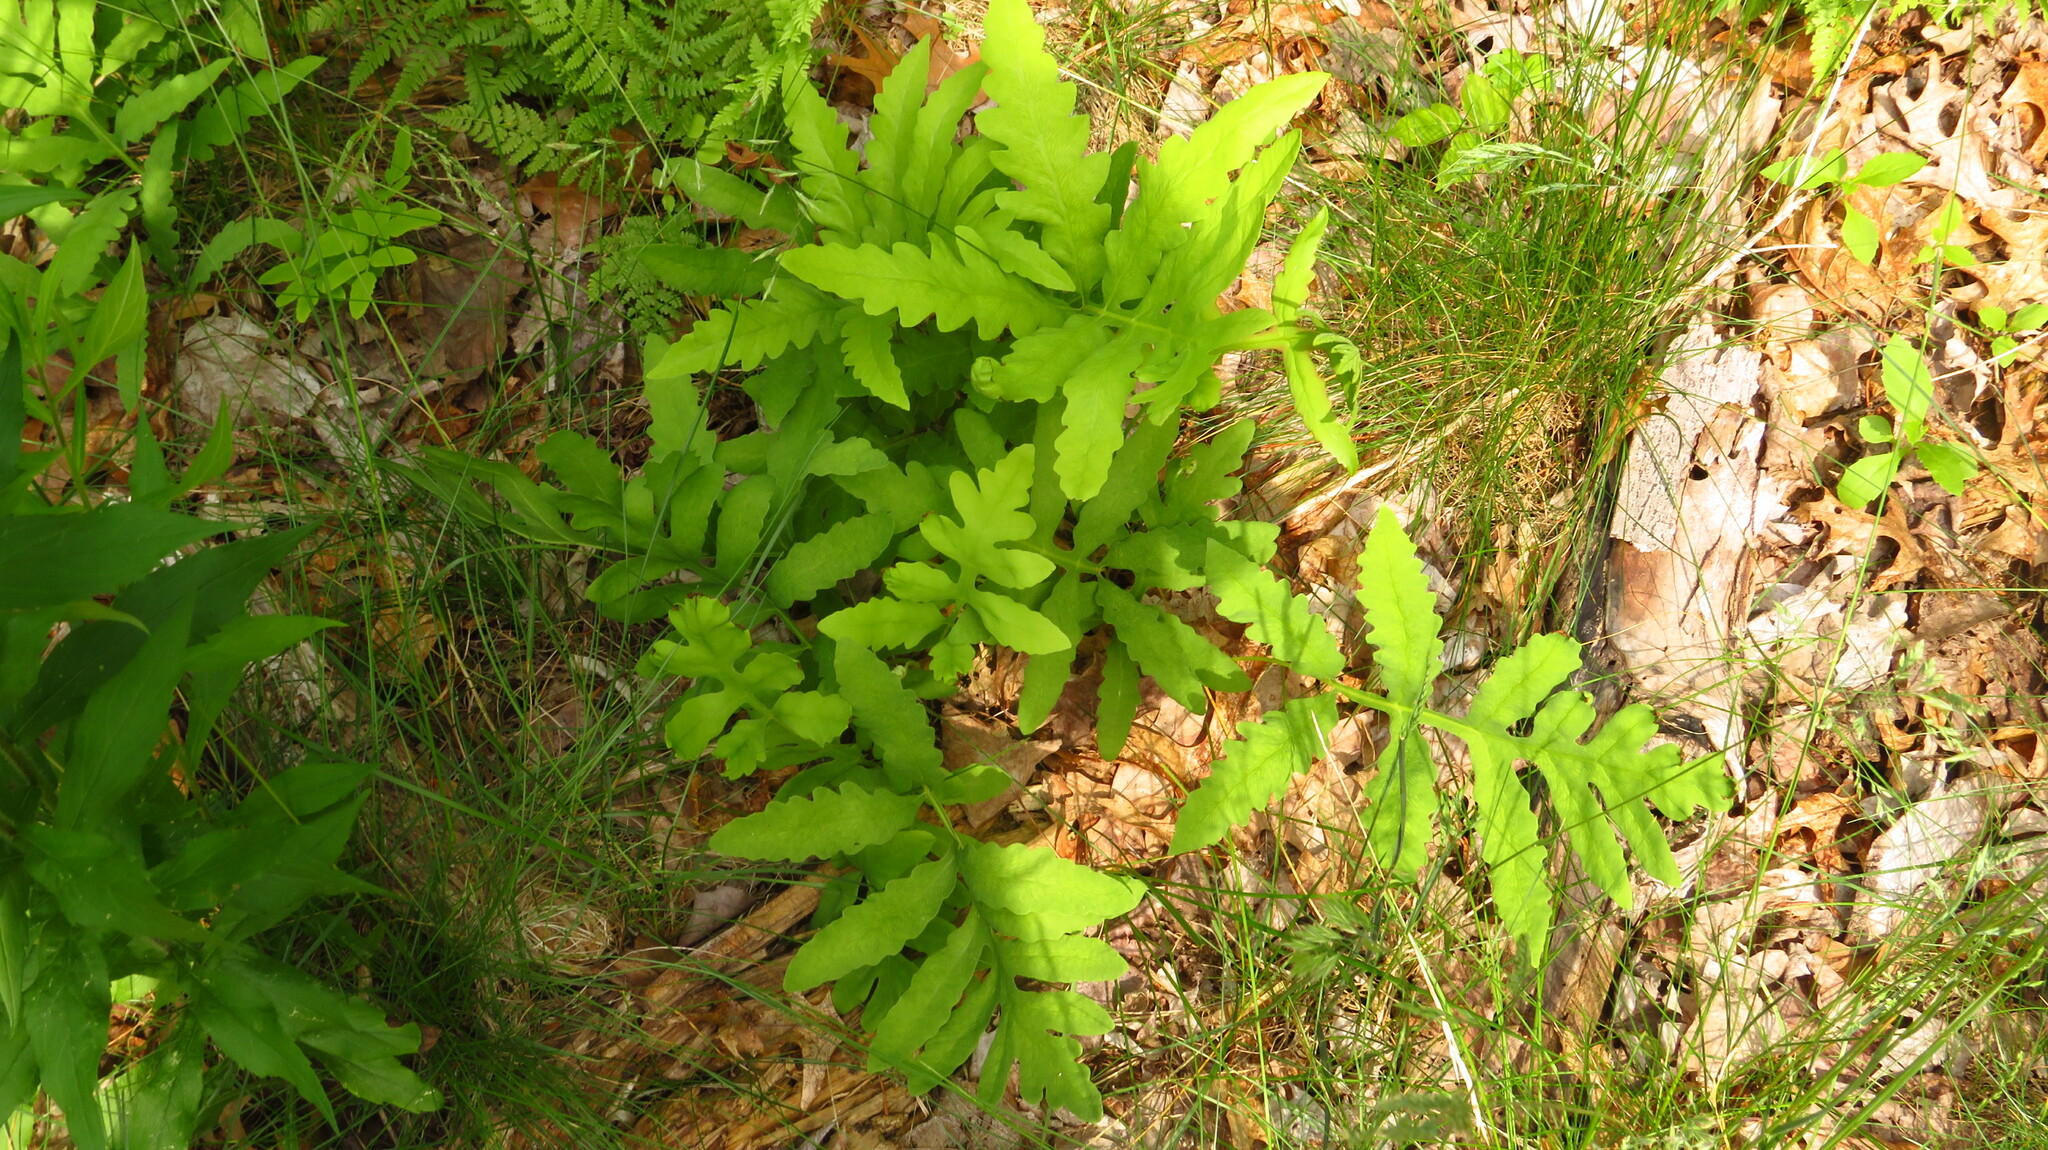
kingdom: Plantae
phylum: Tracheophyta
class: Polypodiopsida
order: Polypodiales
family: Onocleaceae
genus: Onoclea
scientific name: Onoclea sensibilis
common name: Sensitive fern
